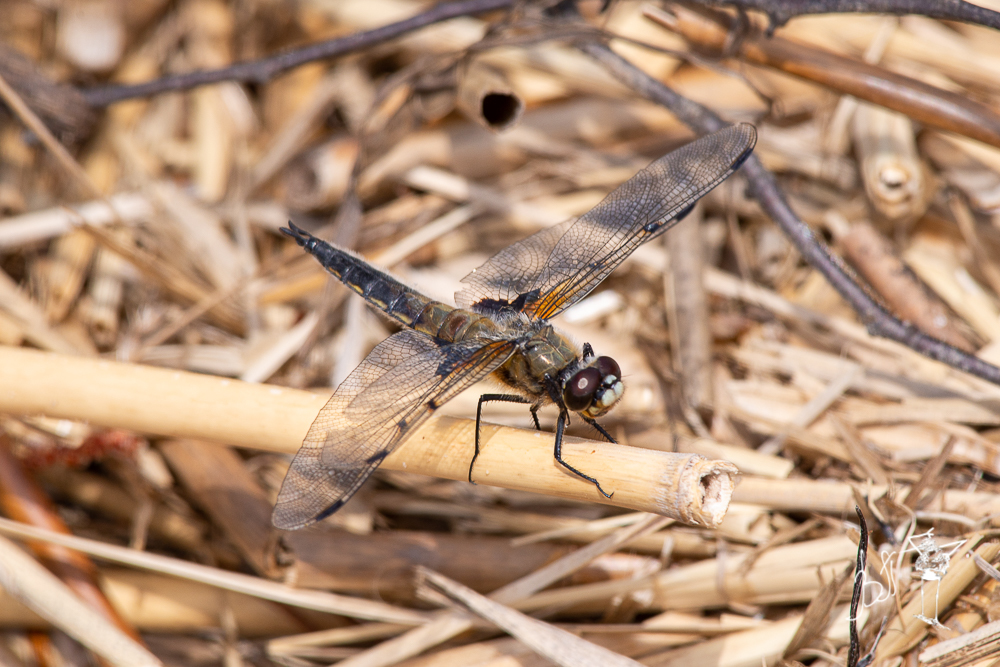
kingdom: Animalia
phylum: Arthropoda
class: Insecta
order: Odonata
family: Libellulidae
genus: Libellula
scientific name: Libellula quadrimaculata
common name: Four-spotted chaser
